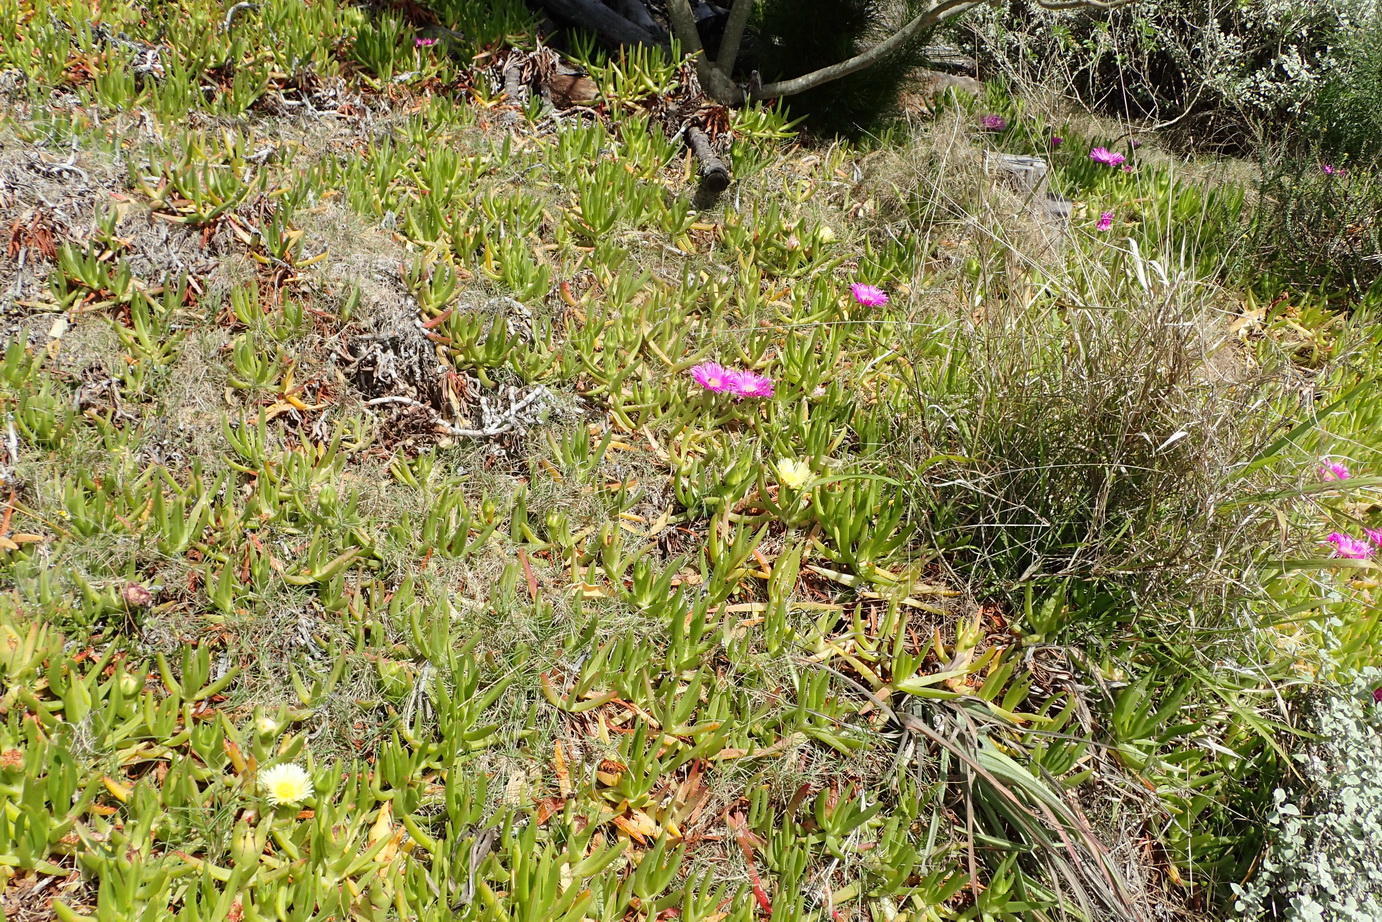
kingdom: Plantae
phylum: Tracheophyta
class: Magnoliopsida
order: Caryophyllales
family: Aizoaceae
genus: Carpobrotus
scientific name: Carpobrotus edulis
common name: Hottentot-fig
